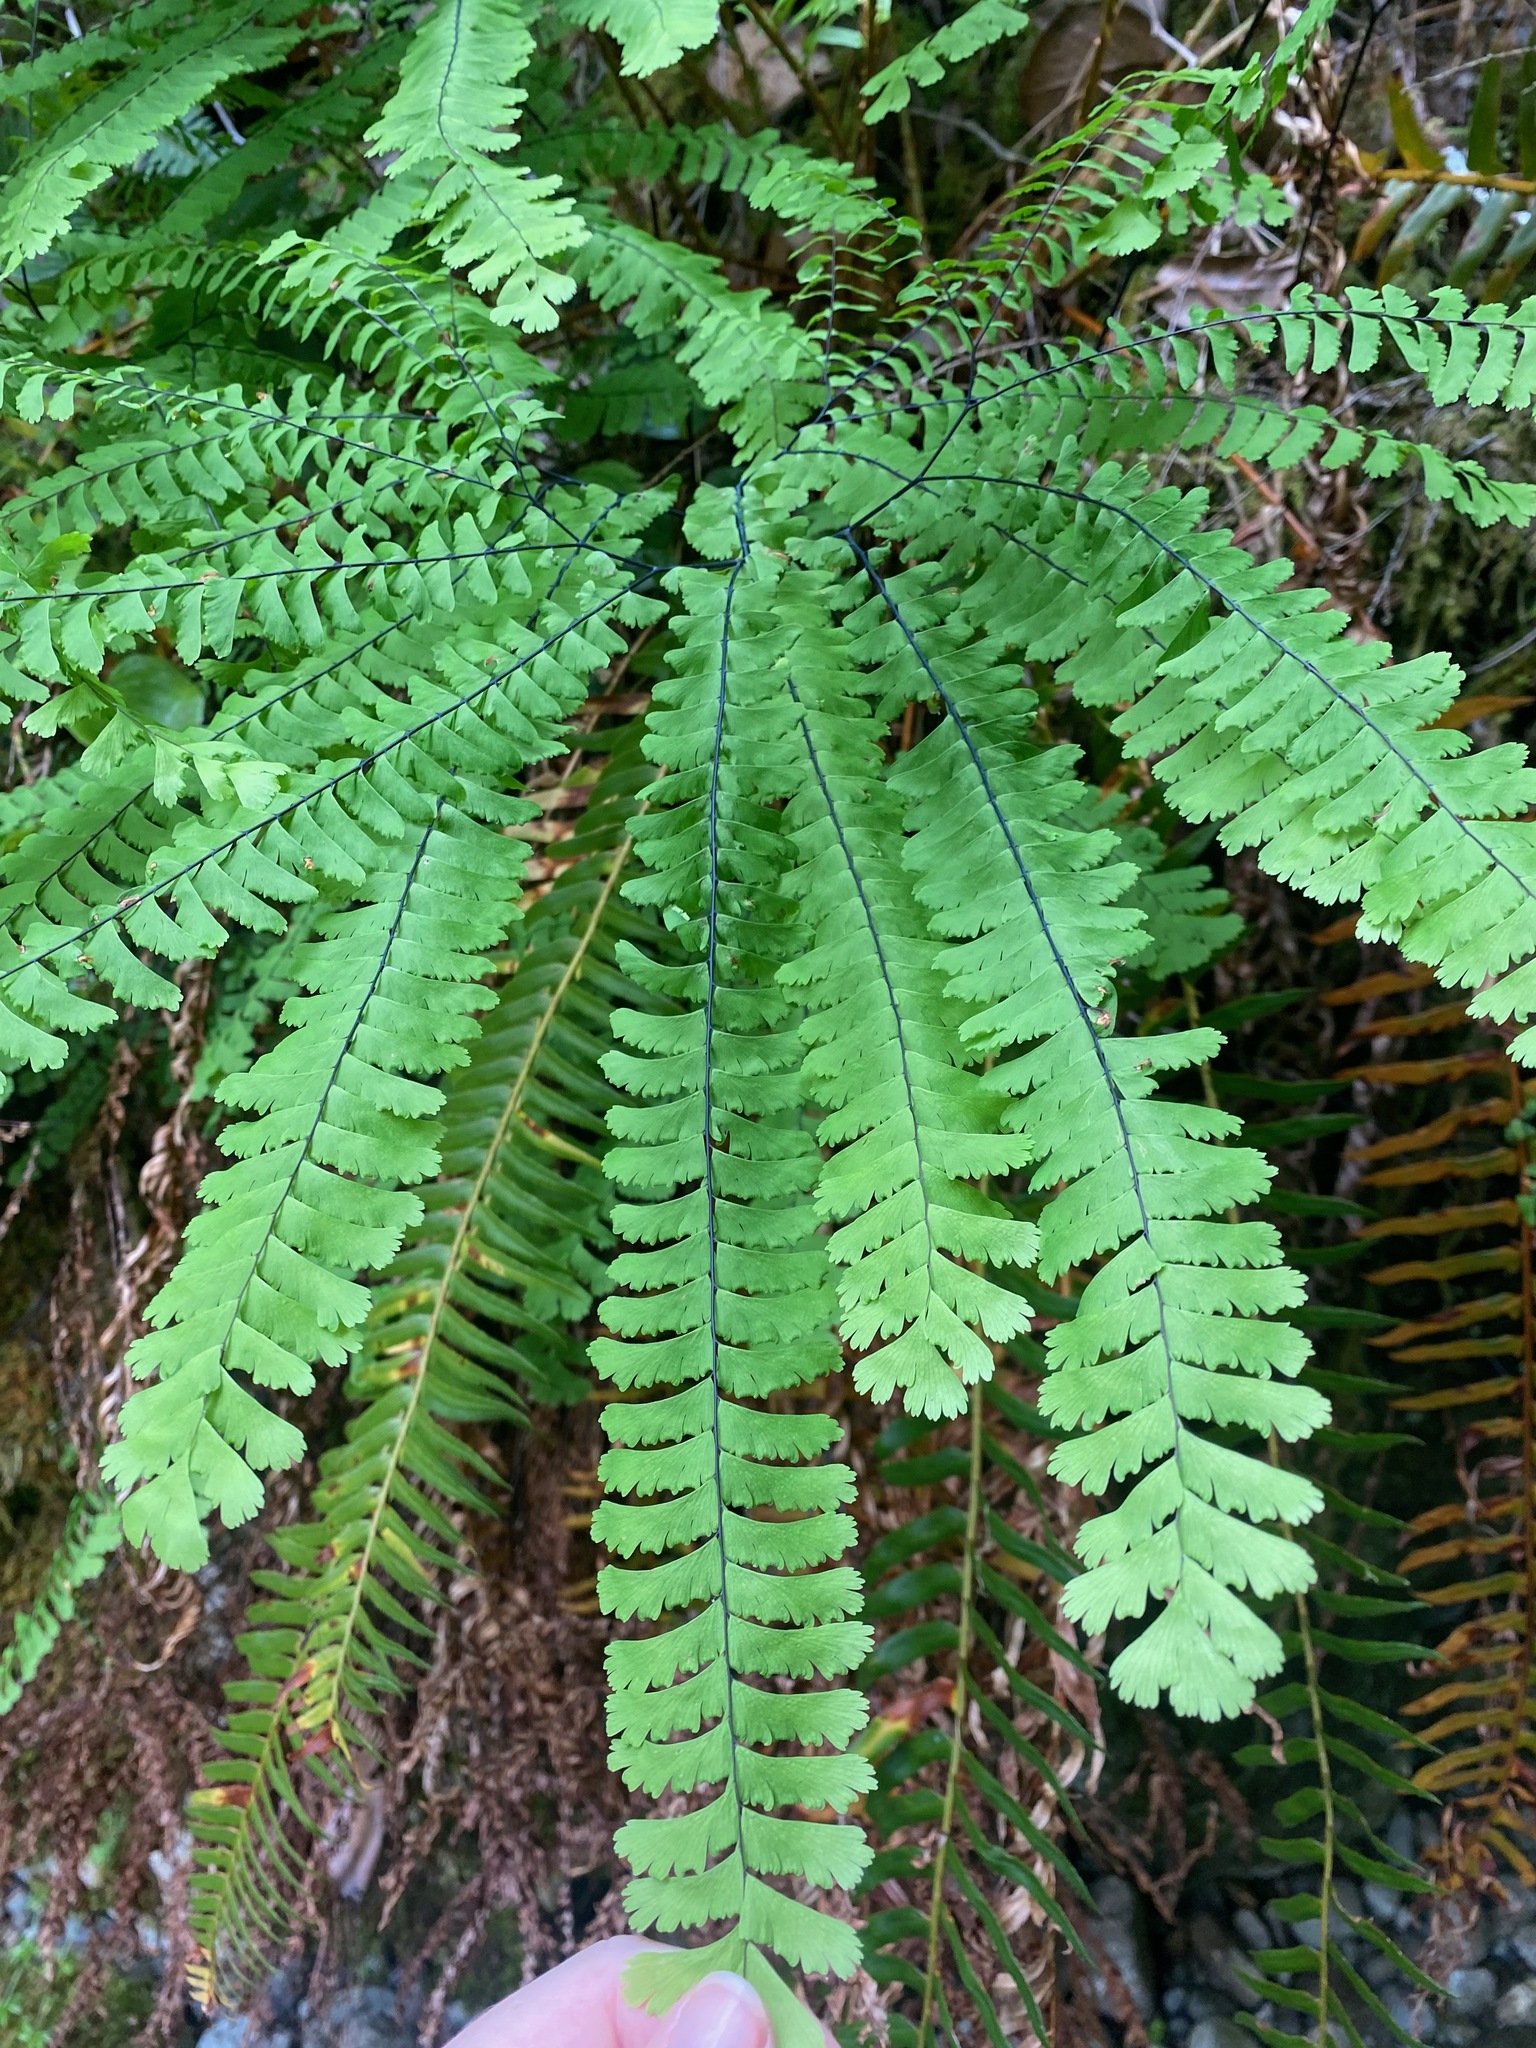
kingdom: Plantae
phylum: Tracheophyta
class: Polypodiopsida
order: Polypodiales
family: Pteridaceae
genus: Adiantum
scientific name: Adiantum aleuticum
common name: Aleutian maidenhair fern
